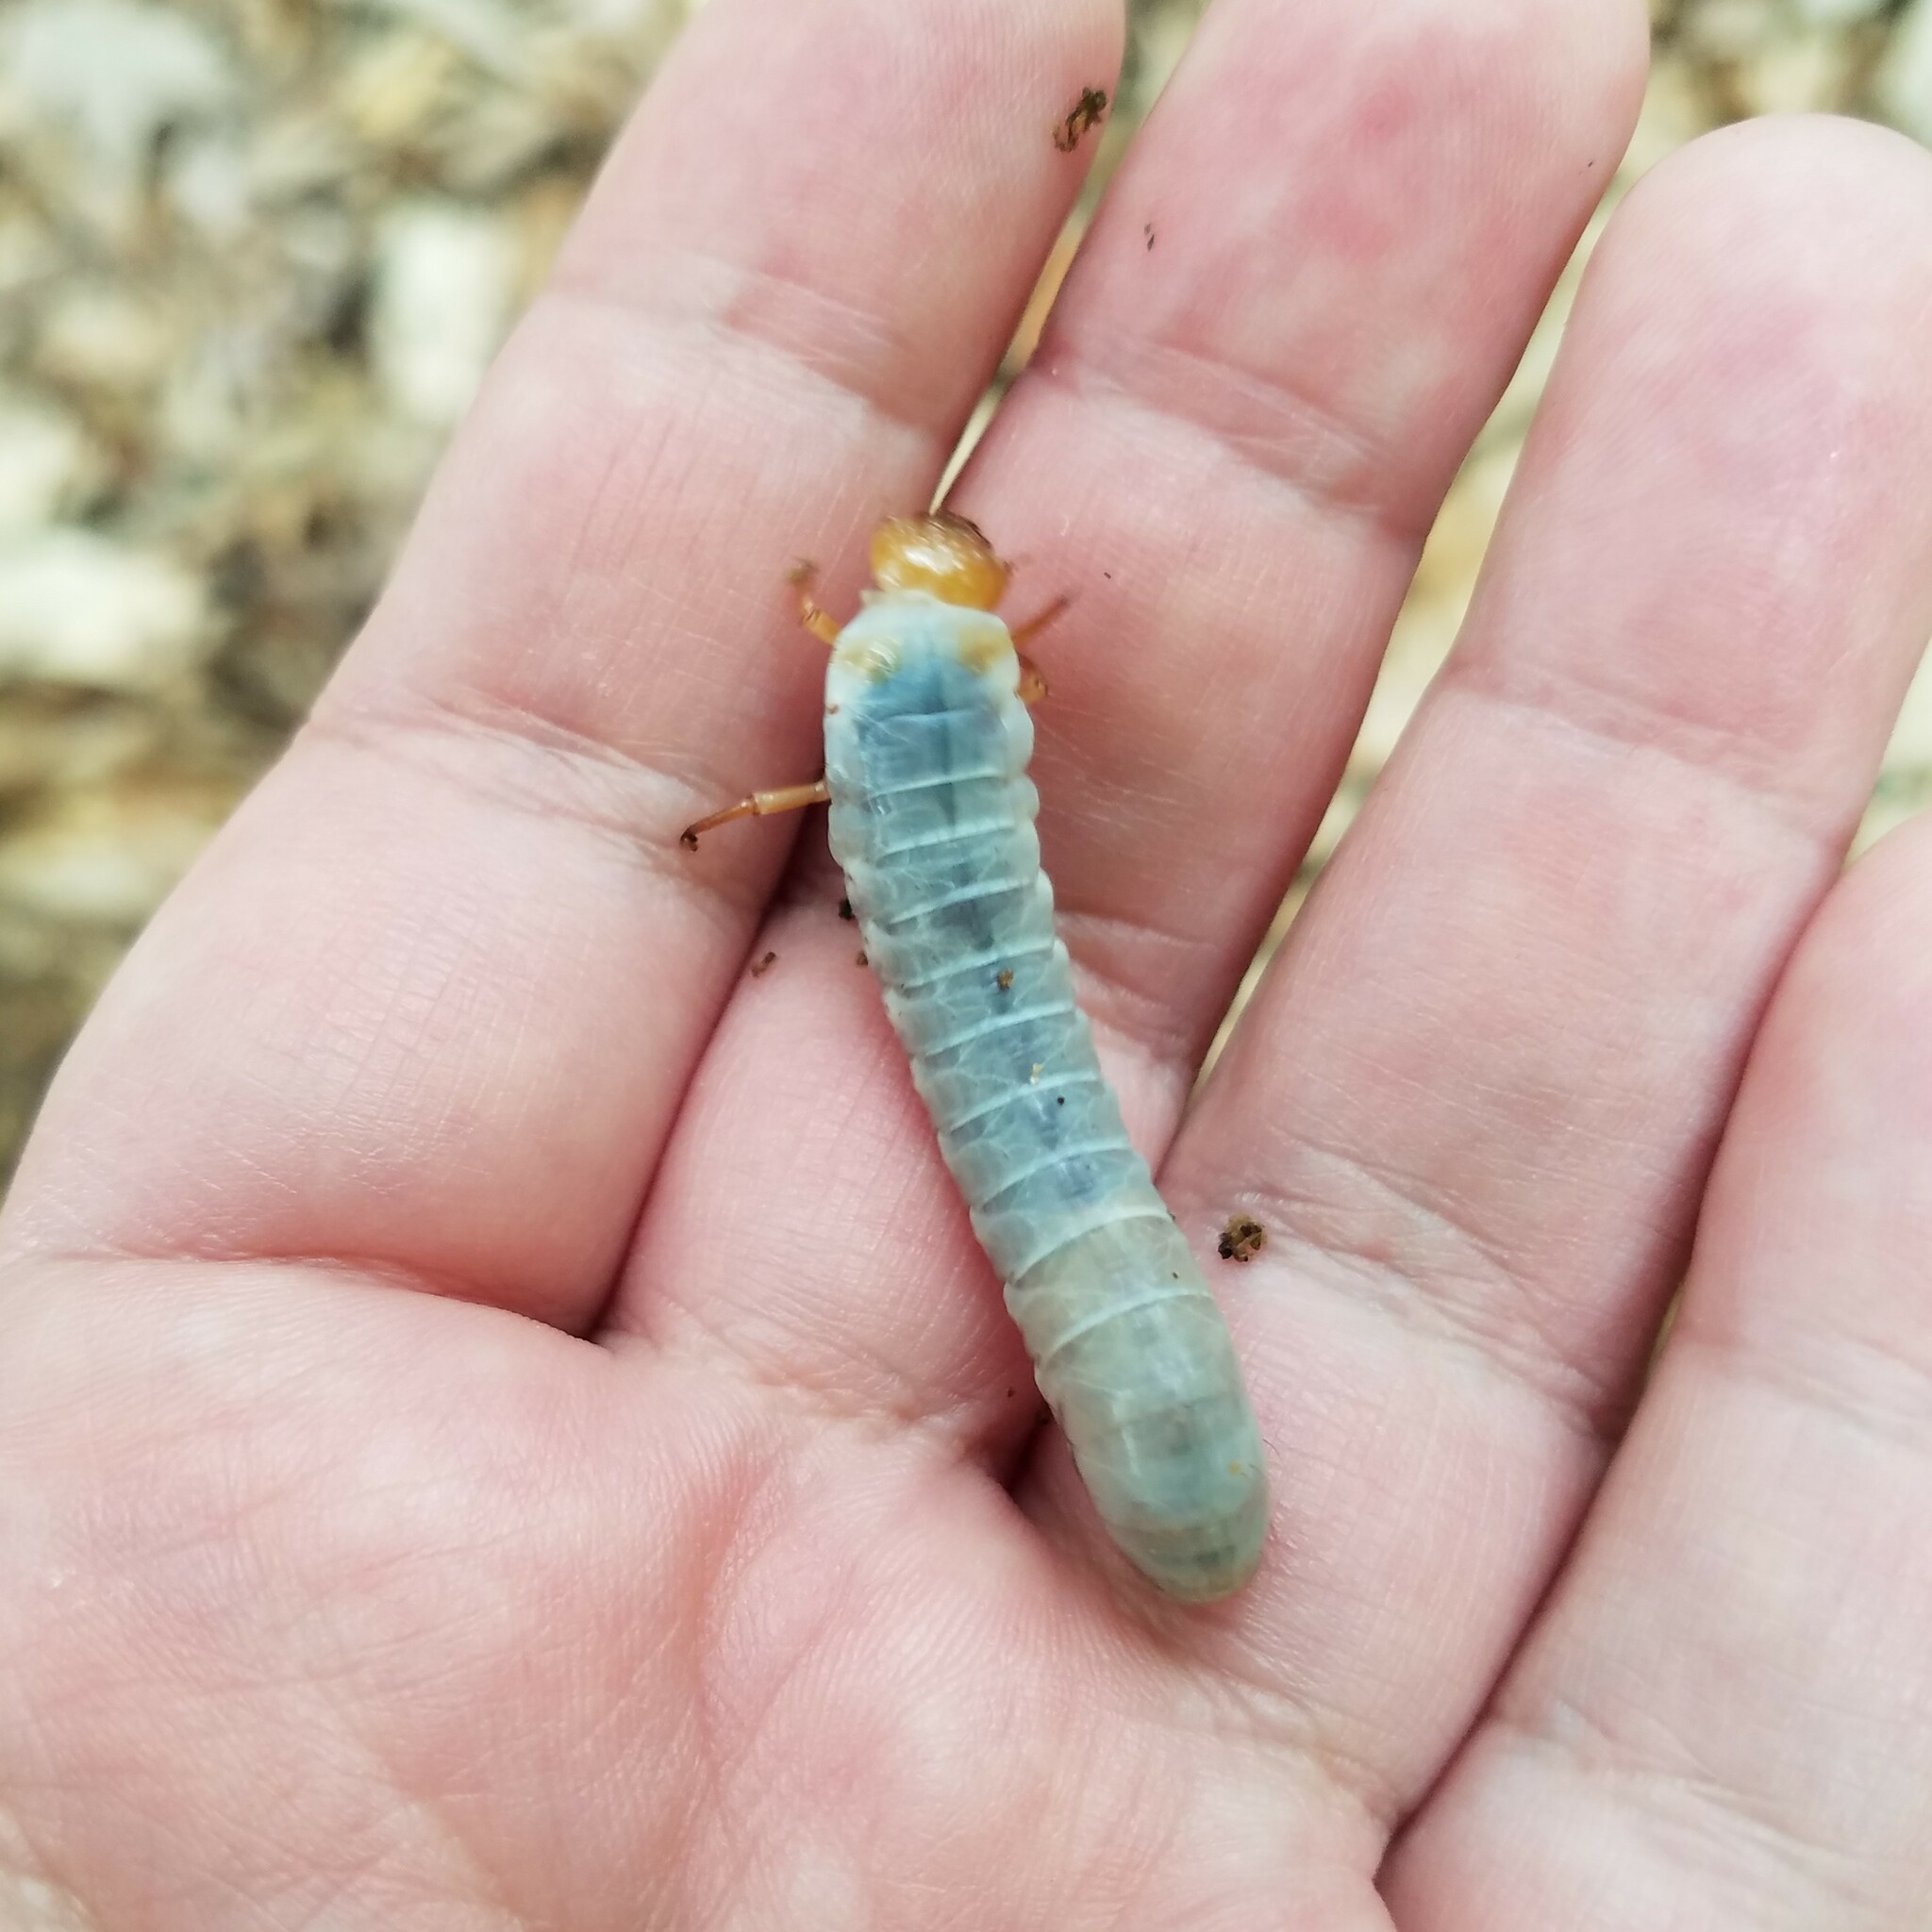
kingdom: Animalia
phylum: Arthropoda
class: Insecta
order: Coleoptera
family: Passalidae
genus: Odontotaenius
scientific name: Odontotaenius disjunctus
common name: Patent leather beetle
